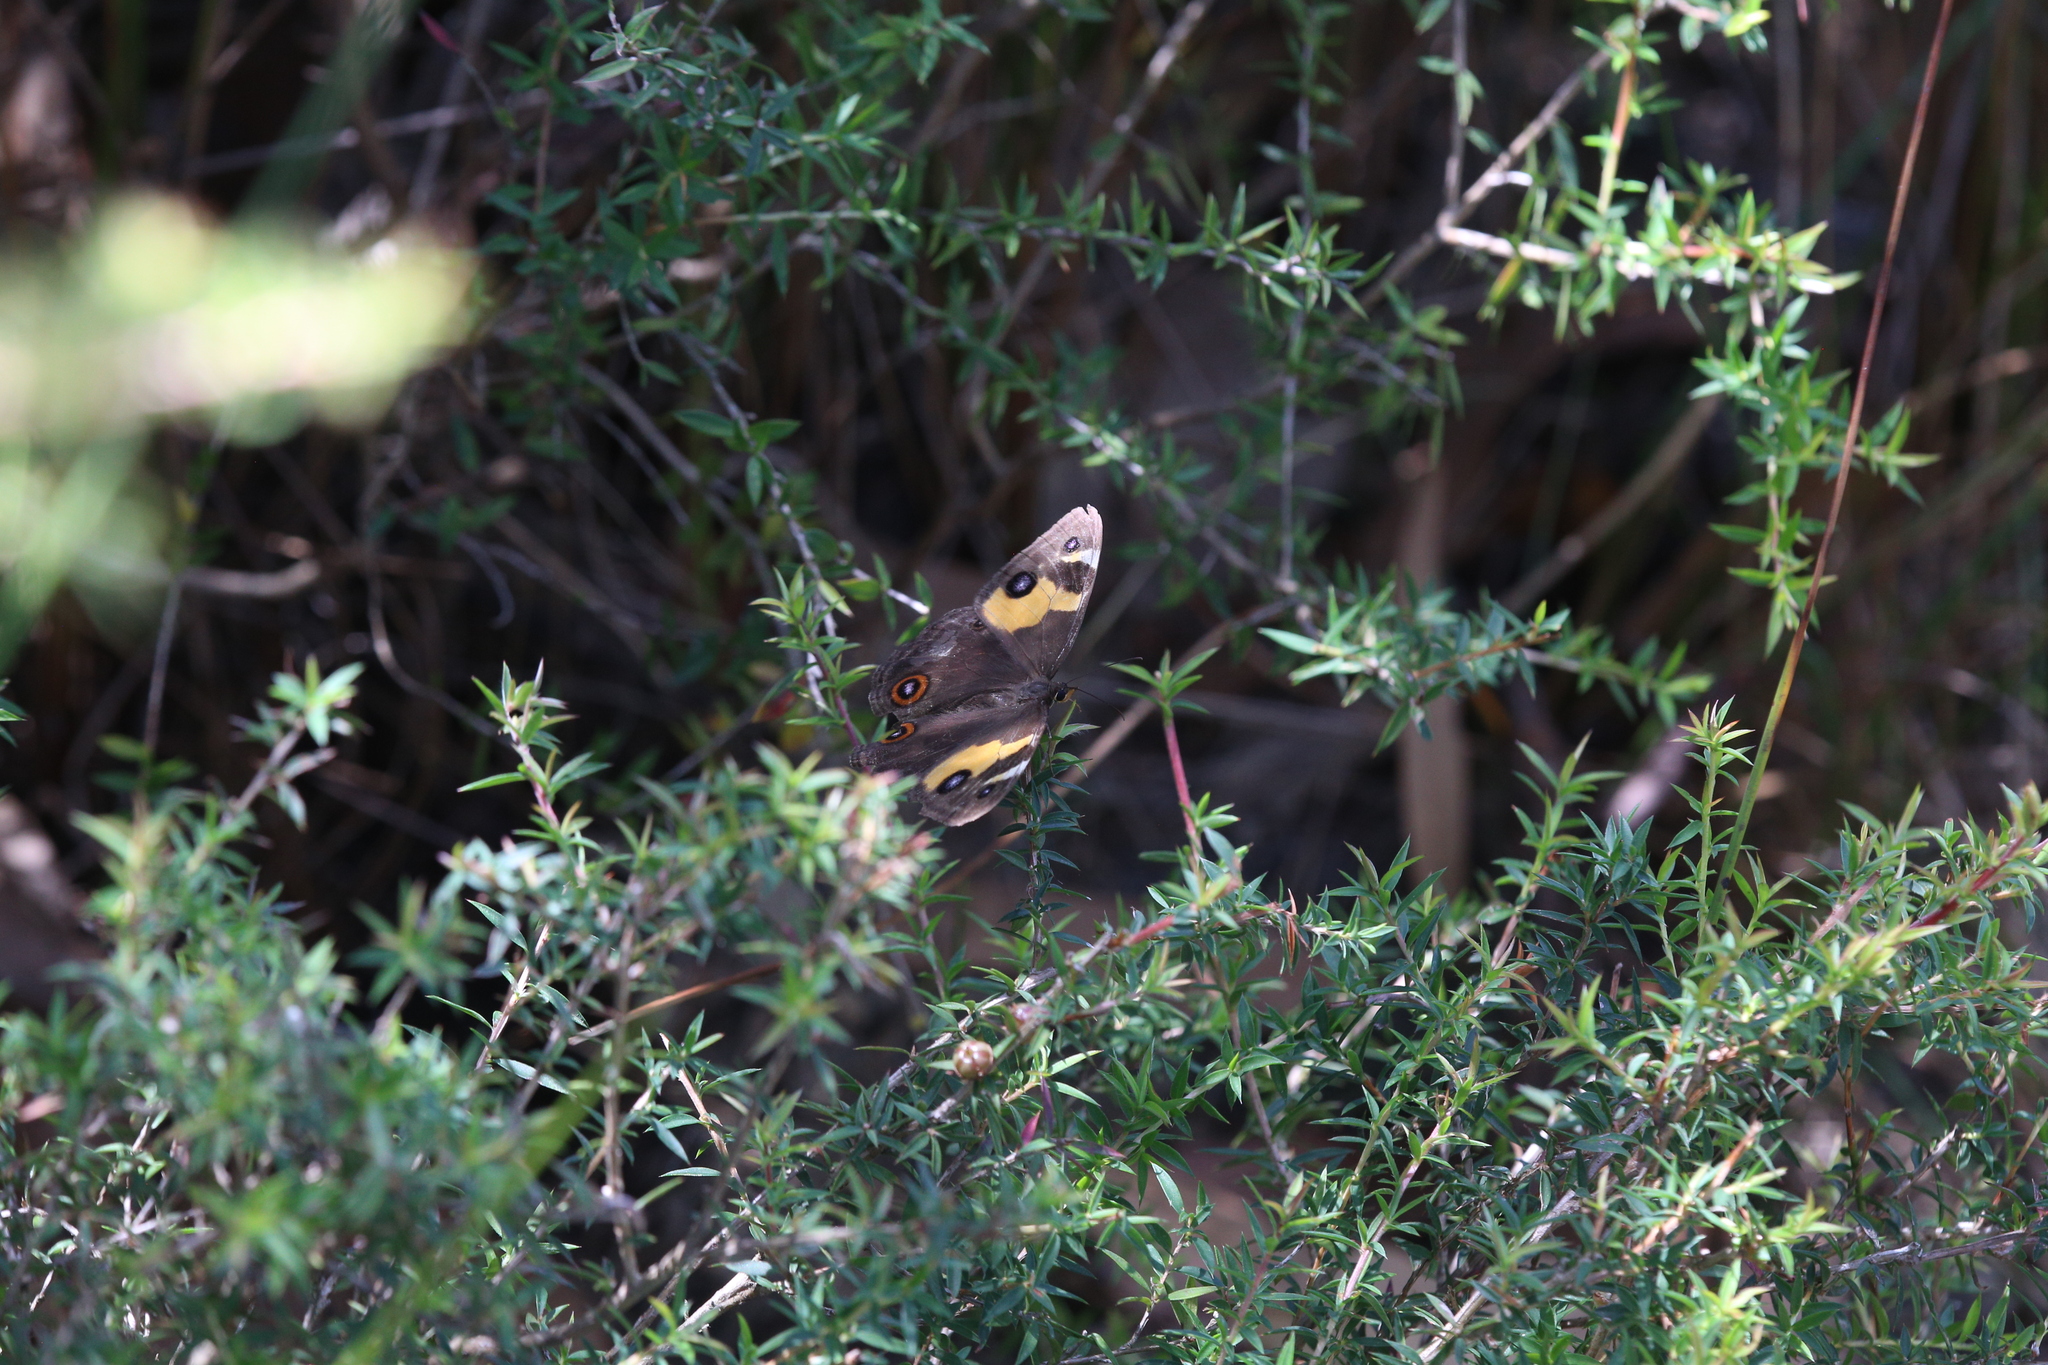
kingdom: Animalia
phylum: Arthropoda
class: Insecta
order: Lepidoptera
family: Nymphalidae
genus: Tisiphone
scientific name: Tisiphone abeona
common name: Swordgrass brown
